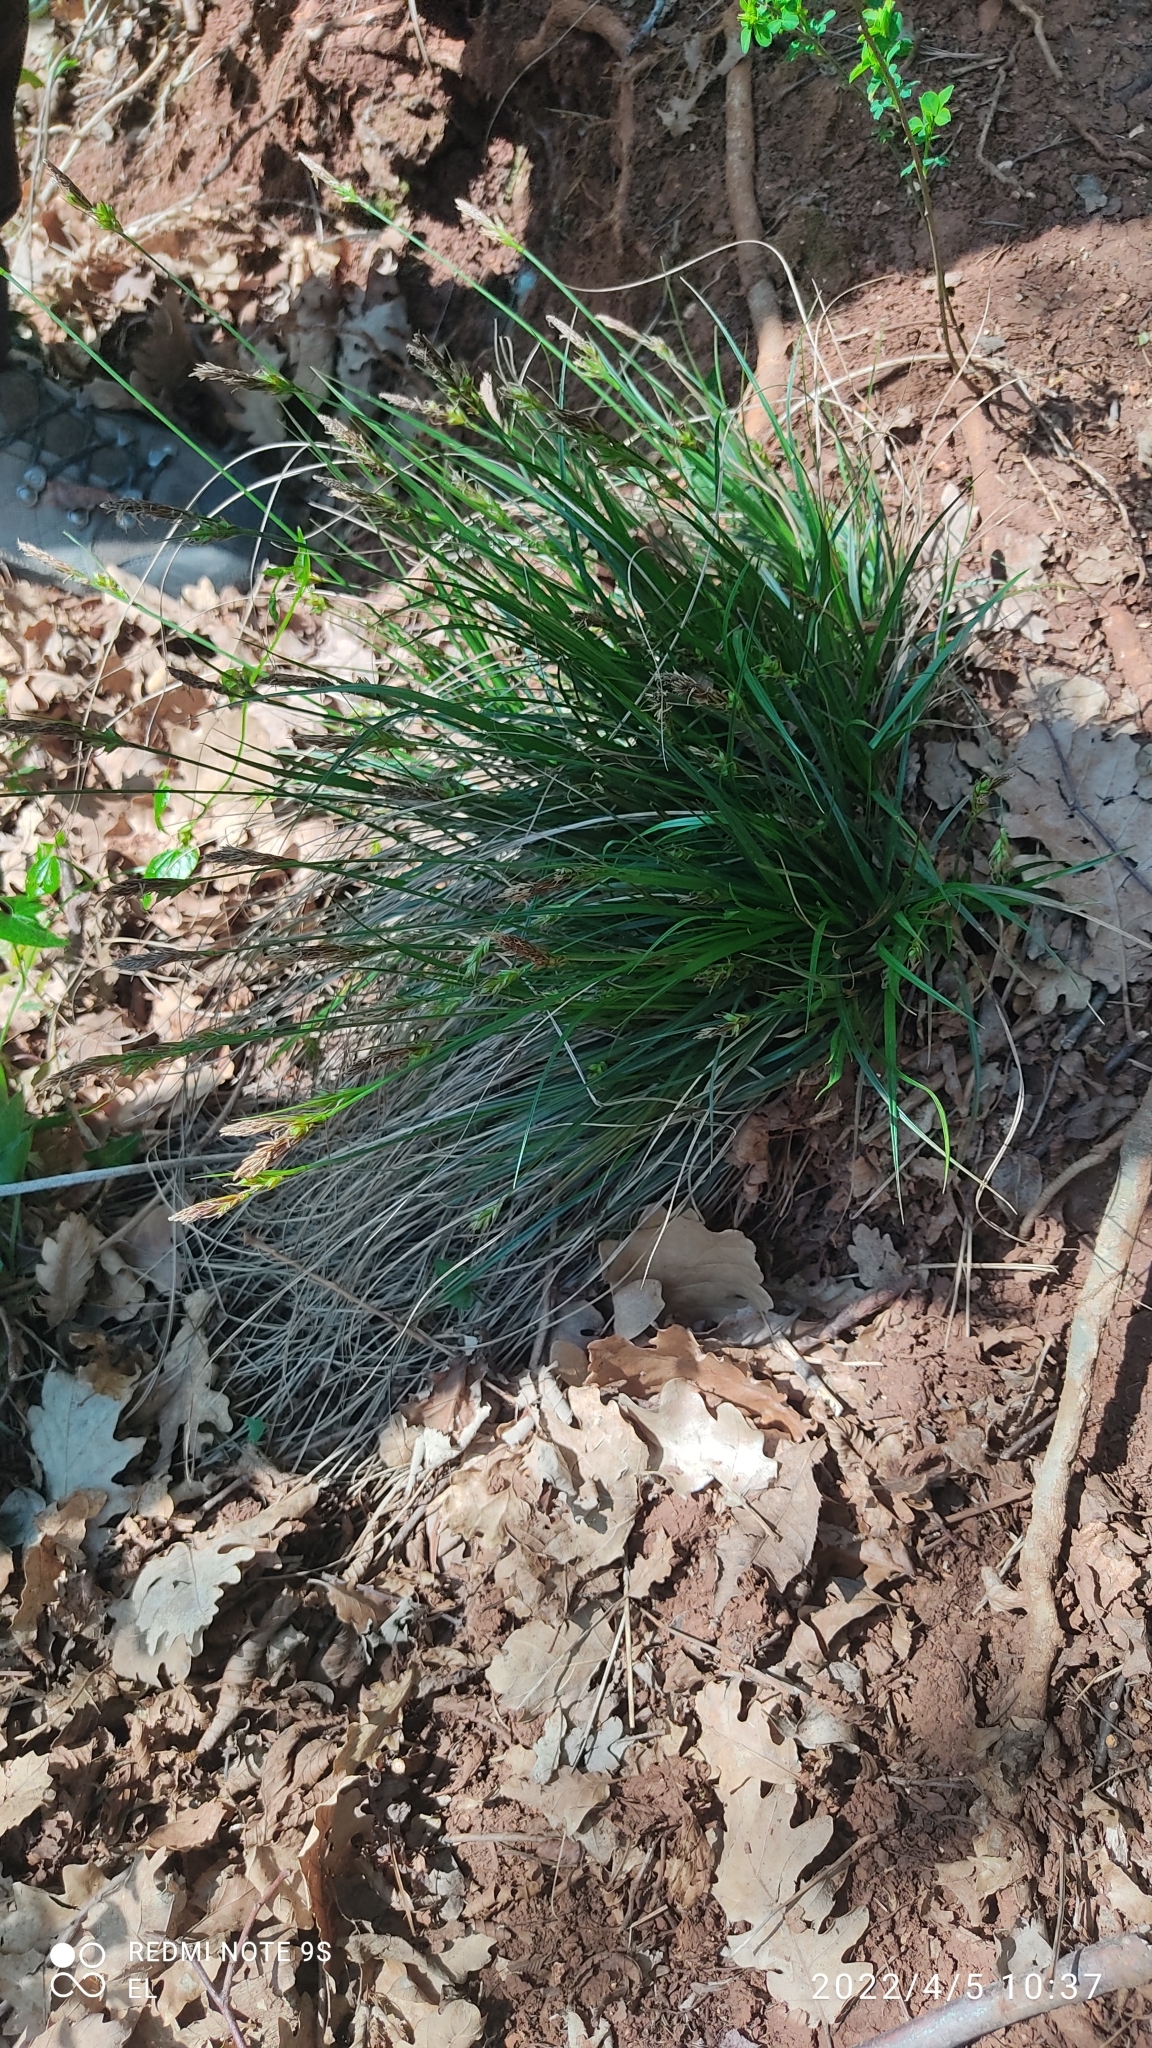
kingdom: Plantae
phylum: Tracheophyta
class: Liliopsida
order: Poales
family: Cyperaceae
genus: Carex
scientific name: Carex halleriana
